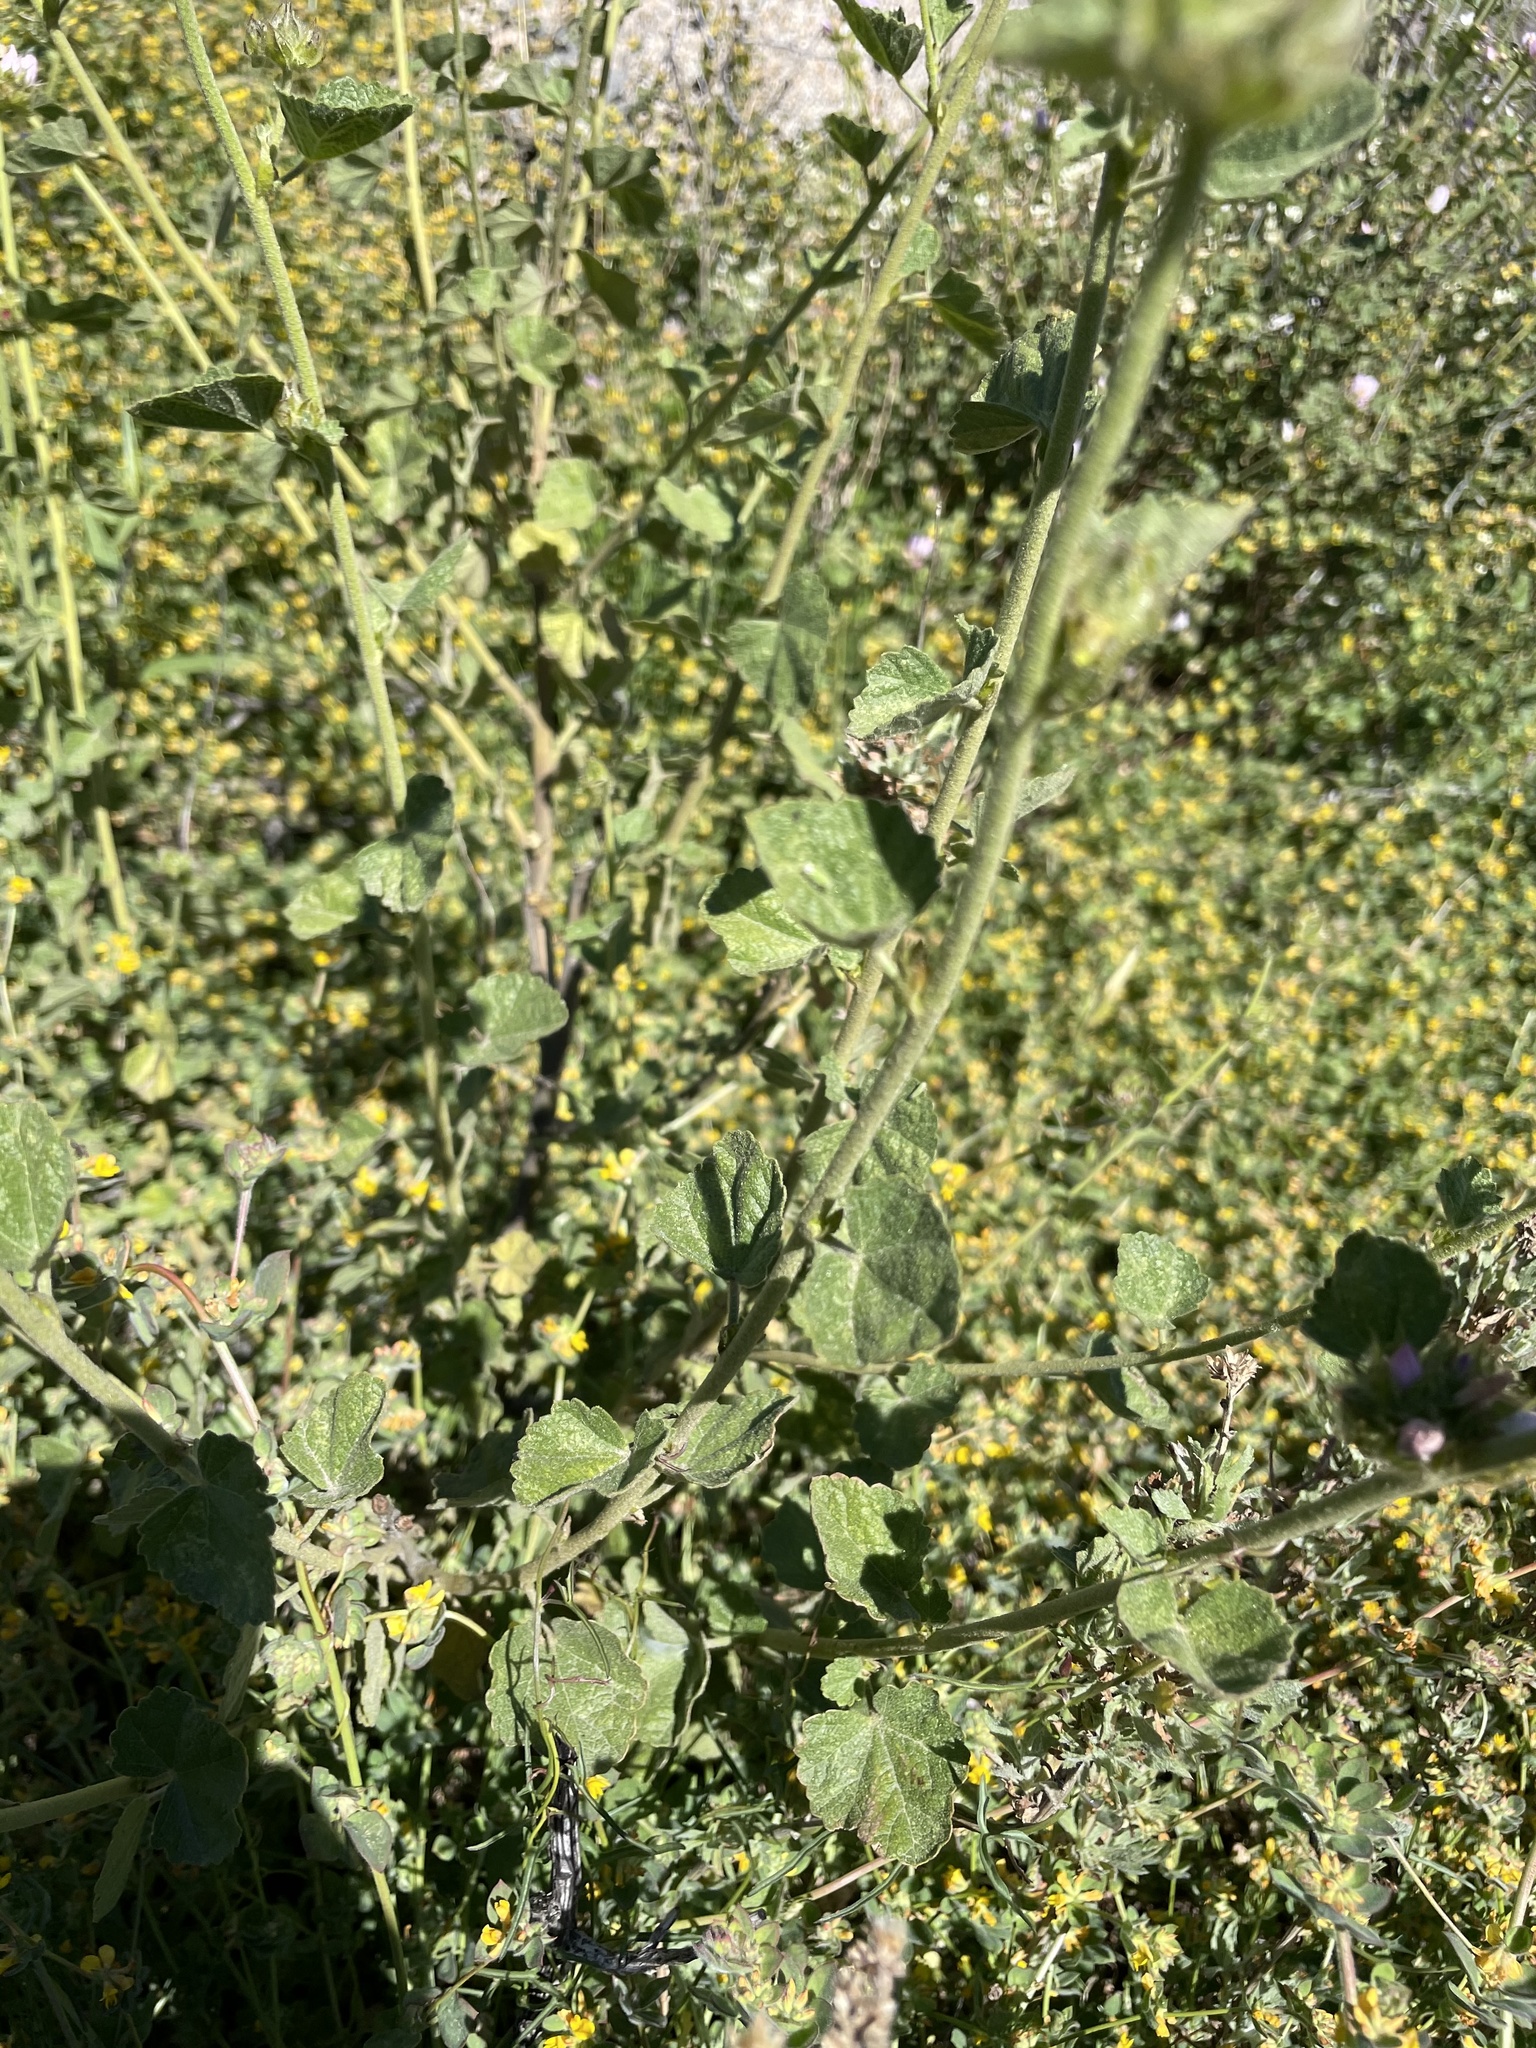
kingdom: Plantae
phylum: Tracheophyta
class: Magnoliopsida
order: Malvales
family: Malvaceae
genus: Malacothamnus
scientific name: Malacothamnus densiflorus
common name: Yellow-stem bush-mallow
